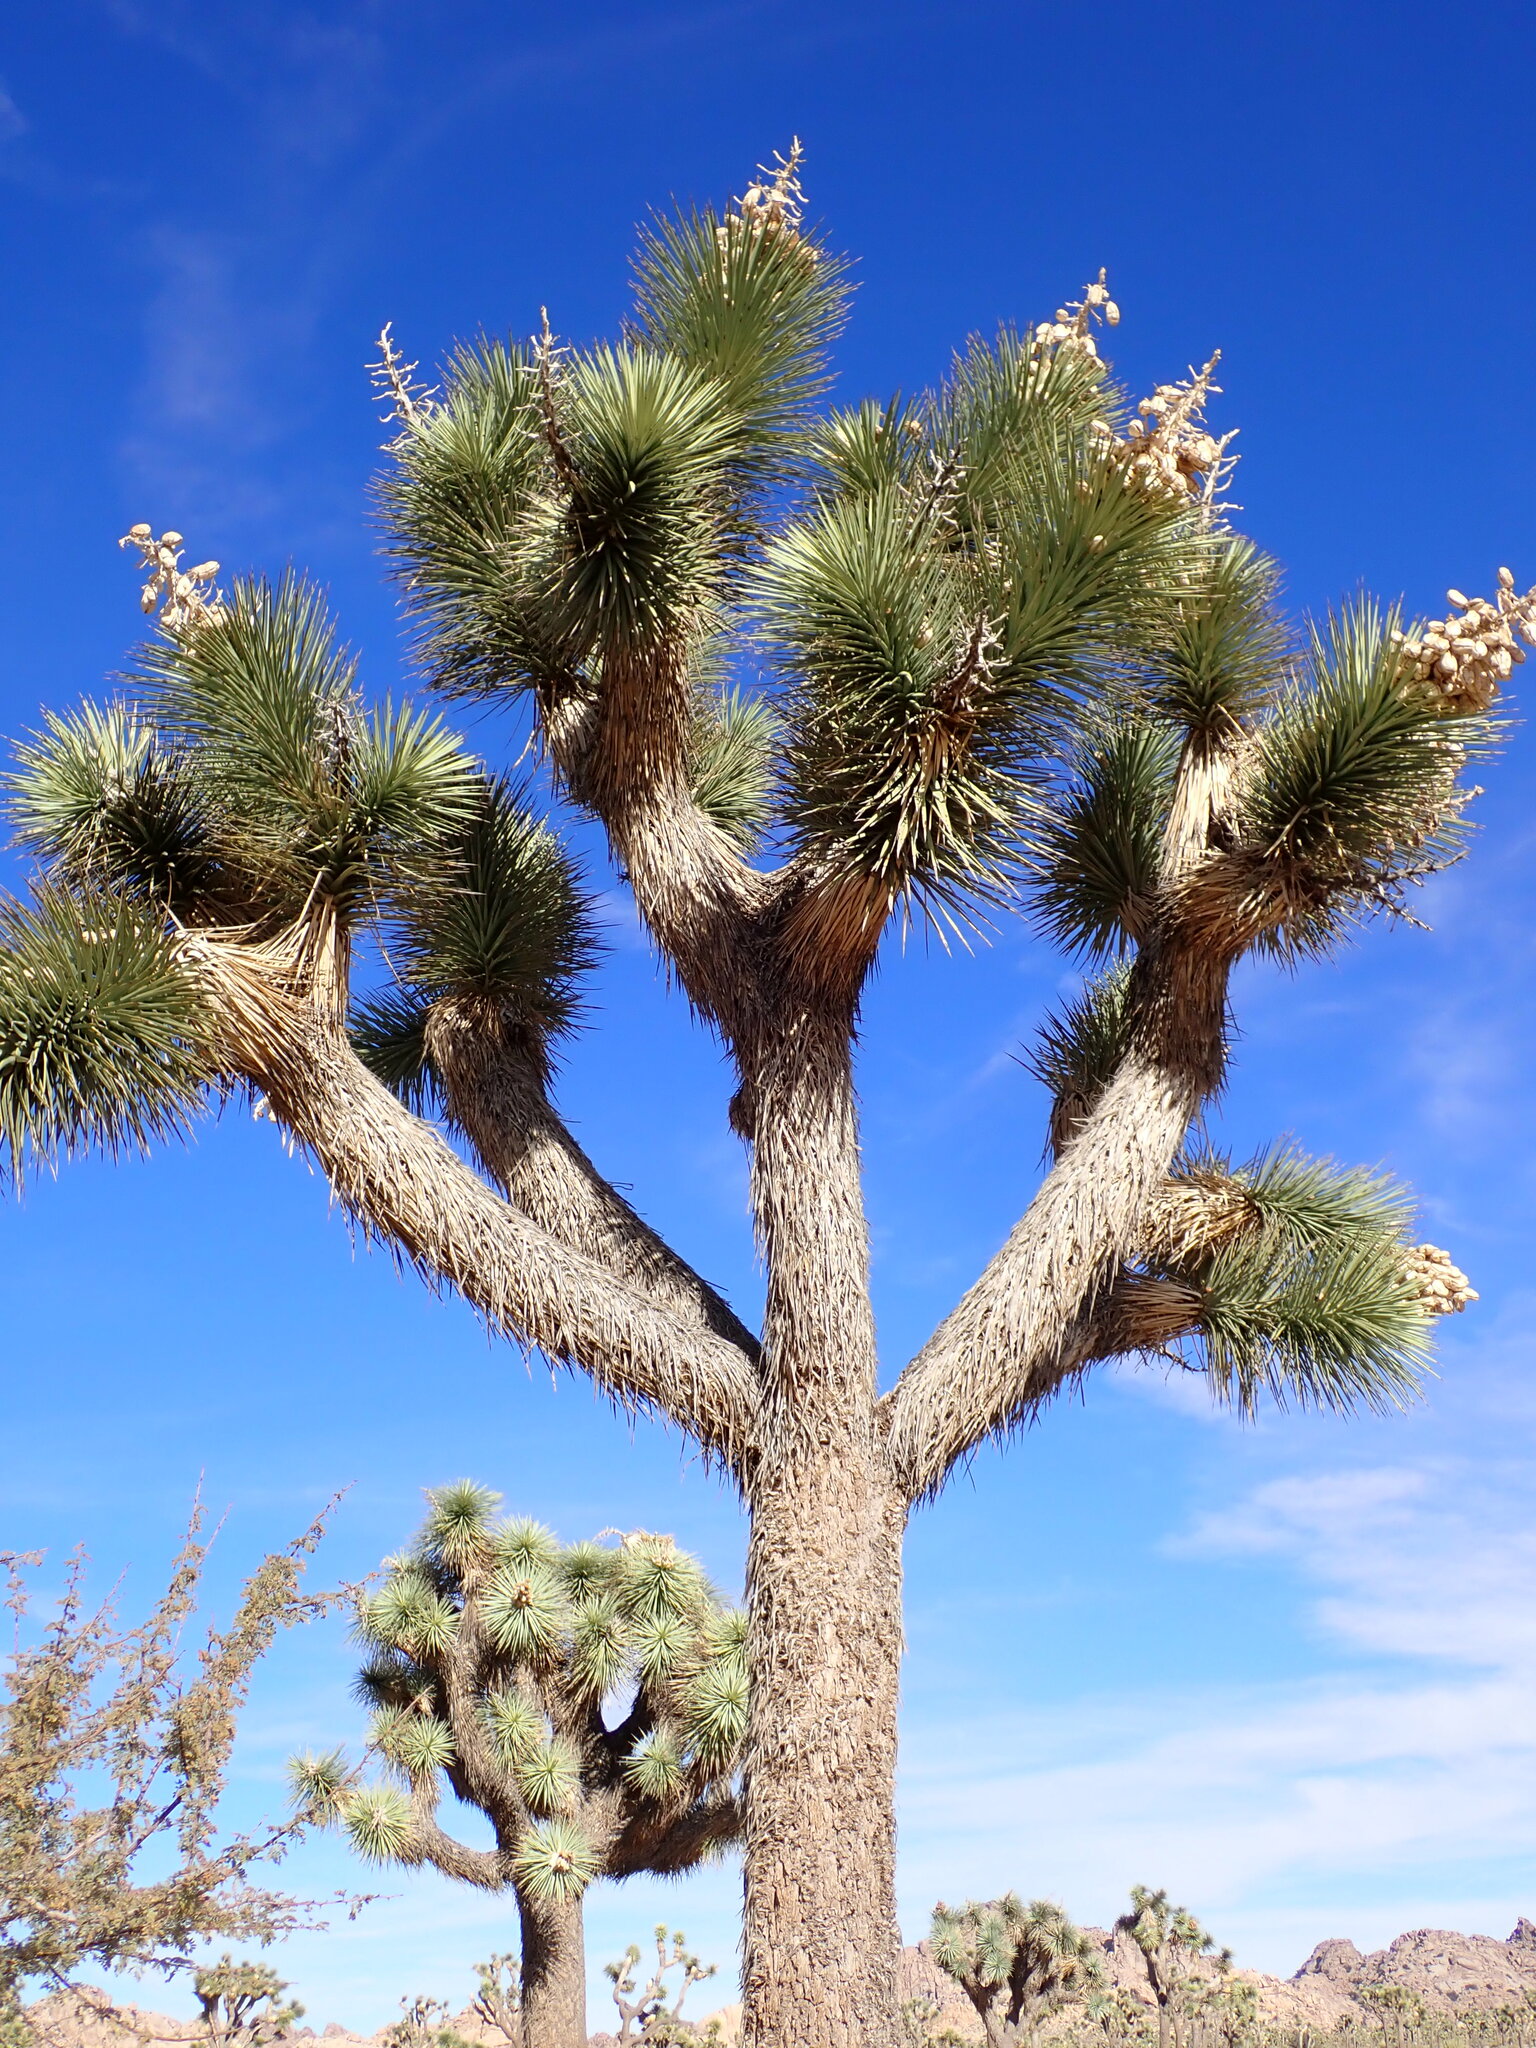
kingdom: Plantae
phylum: Tracheophyta
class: Liliopsida
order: Asparagales
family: Asparagaceae
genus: Yucca
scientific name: Yucca brevifolia
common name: Joshua tree
